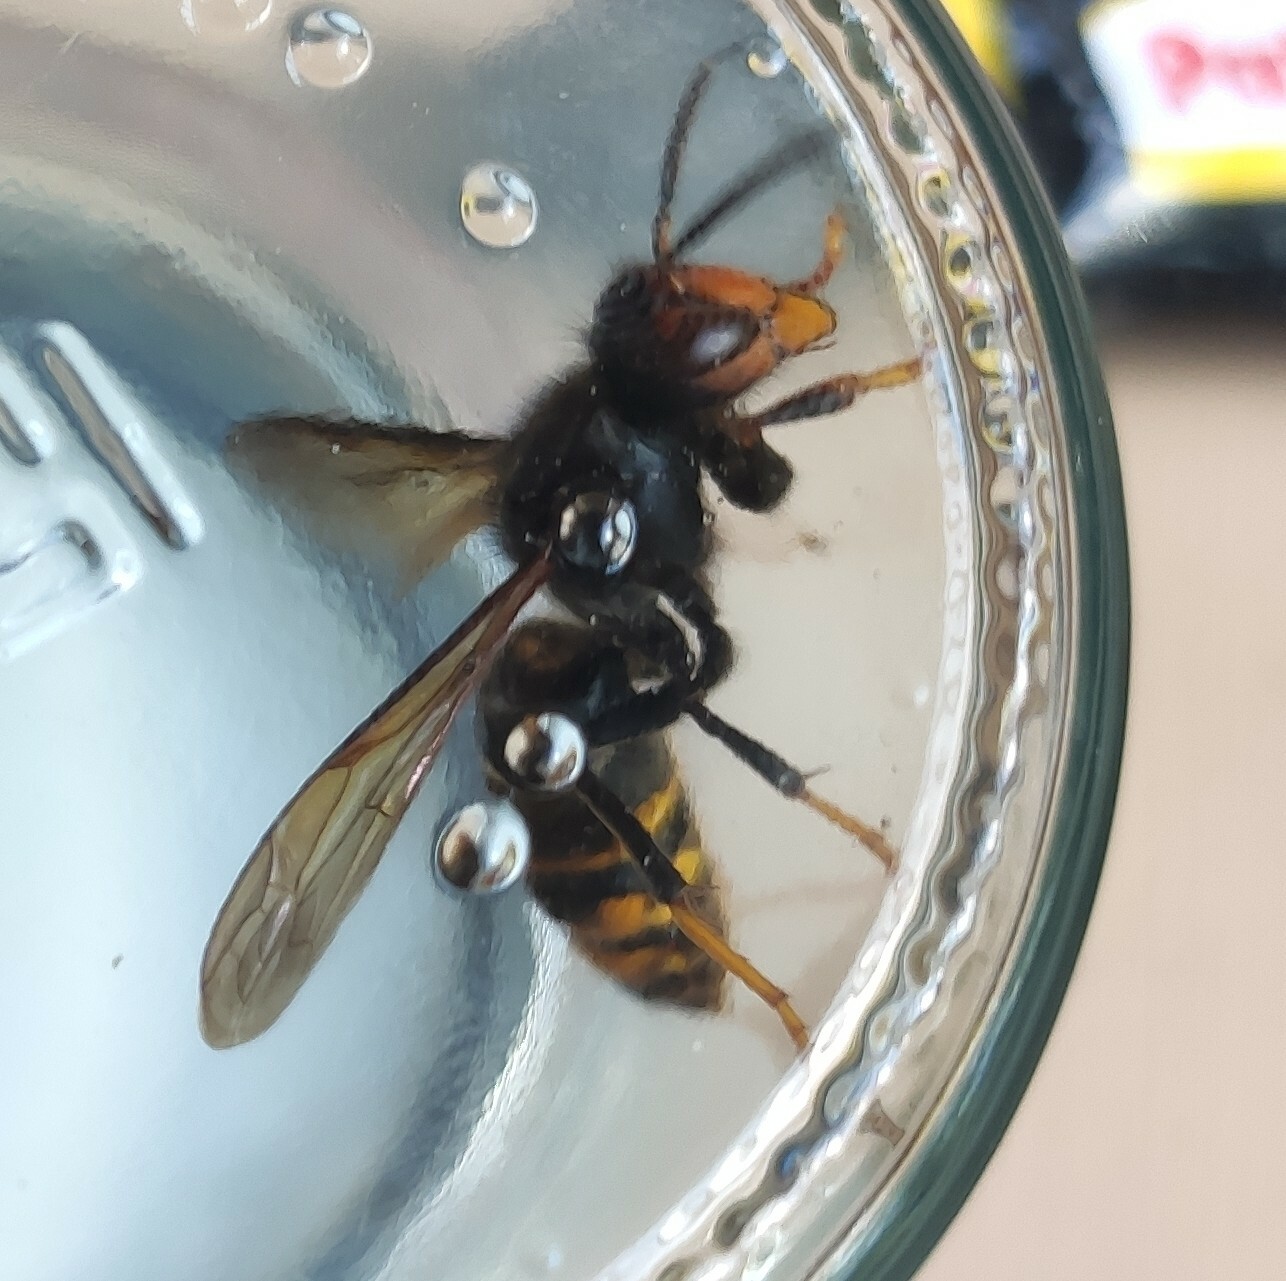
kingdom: Animalia
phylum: Arthropoda
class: Insecta
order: Hymenoptera
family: Vespidae
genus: Vespa
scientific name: Vespa velutina
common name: Asian hornet
